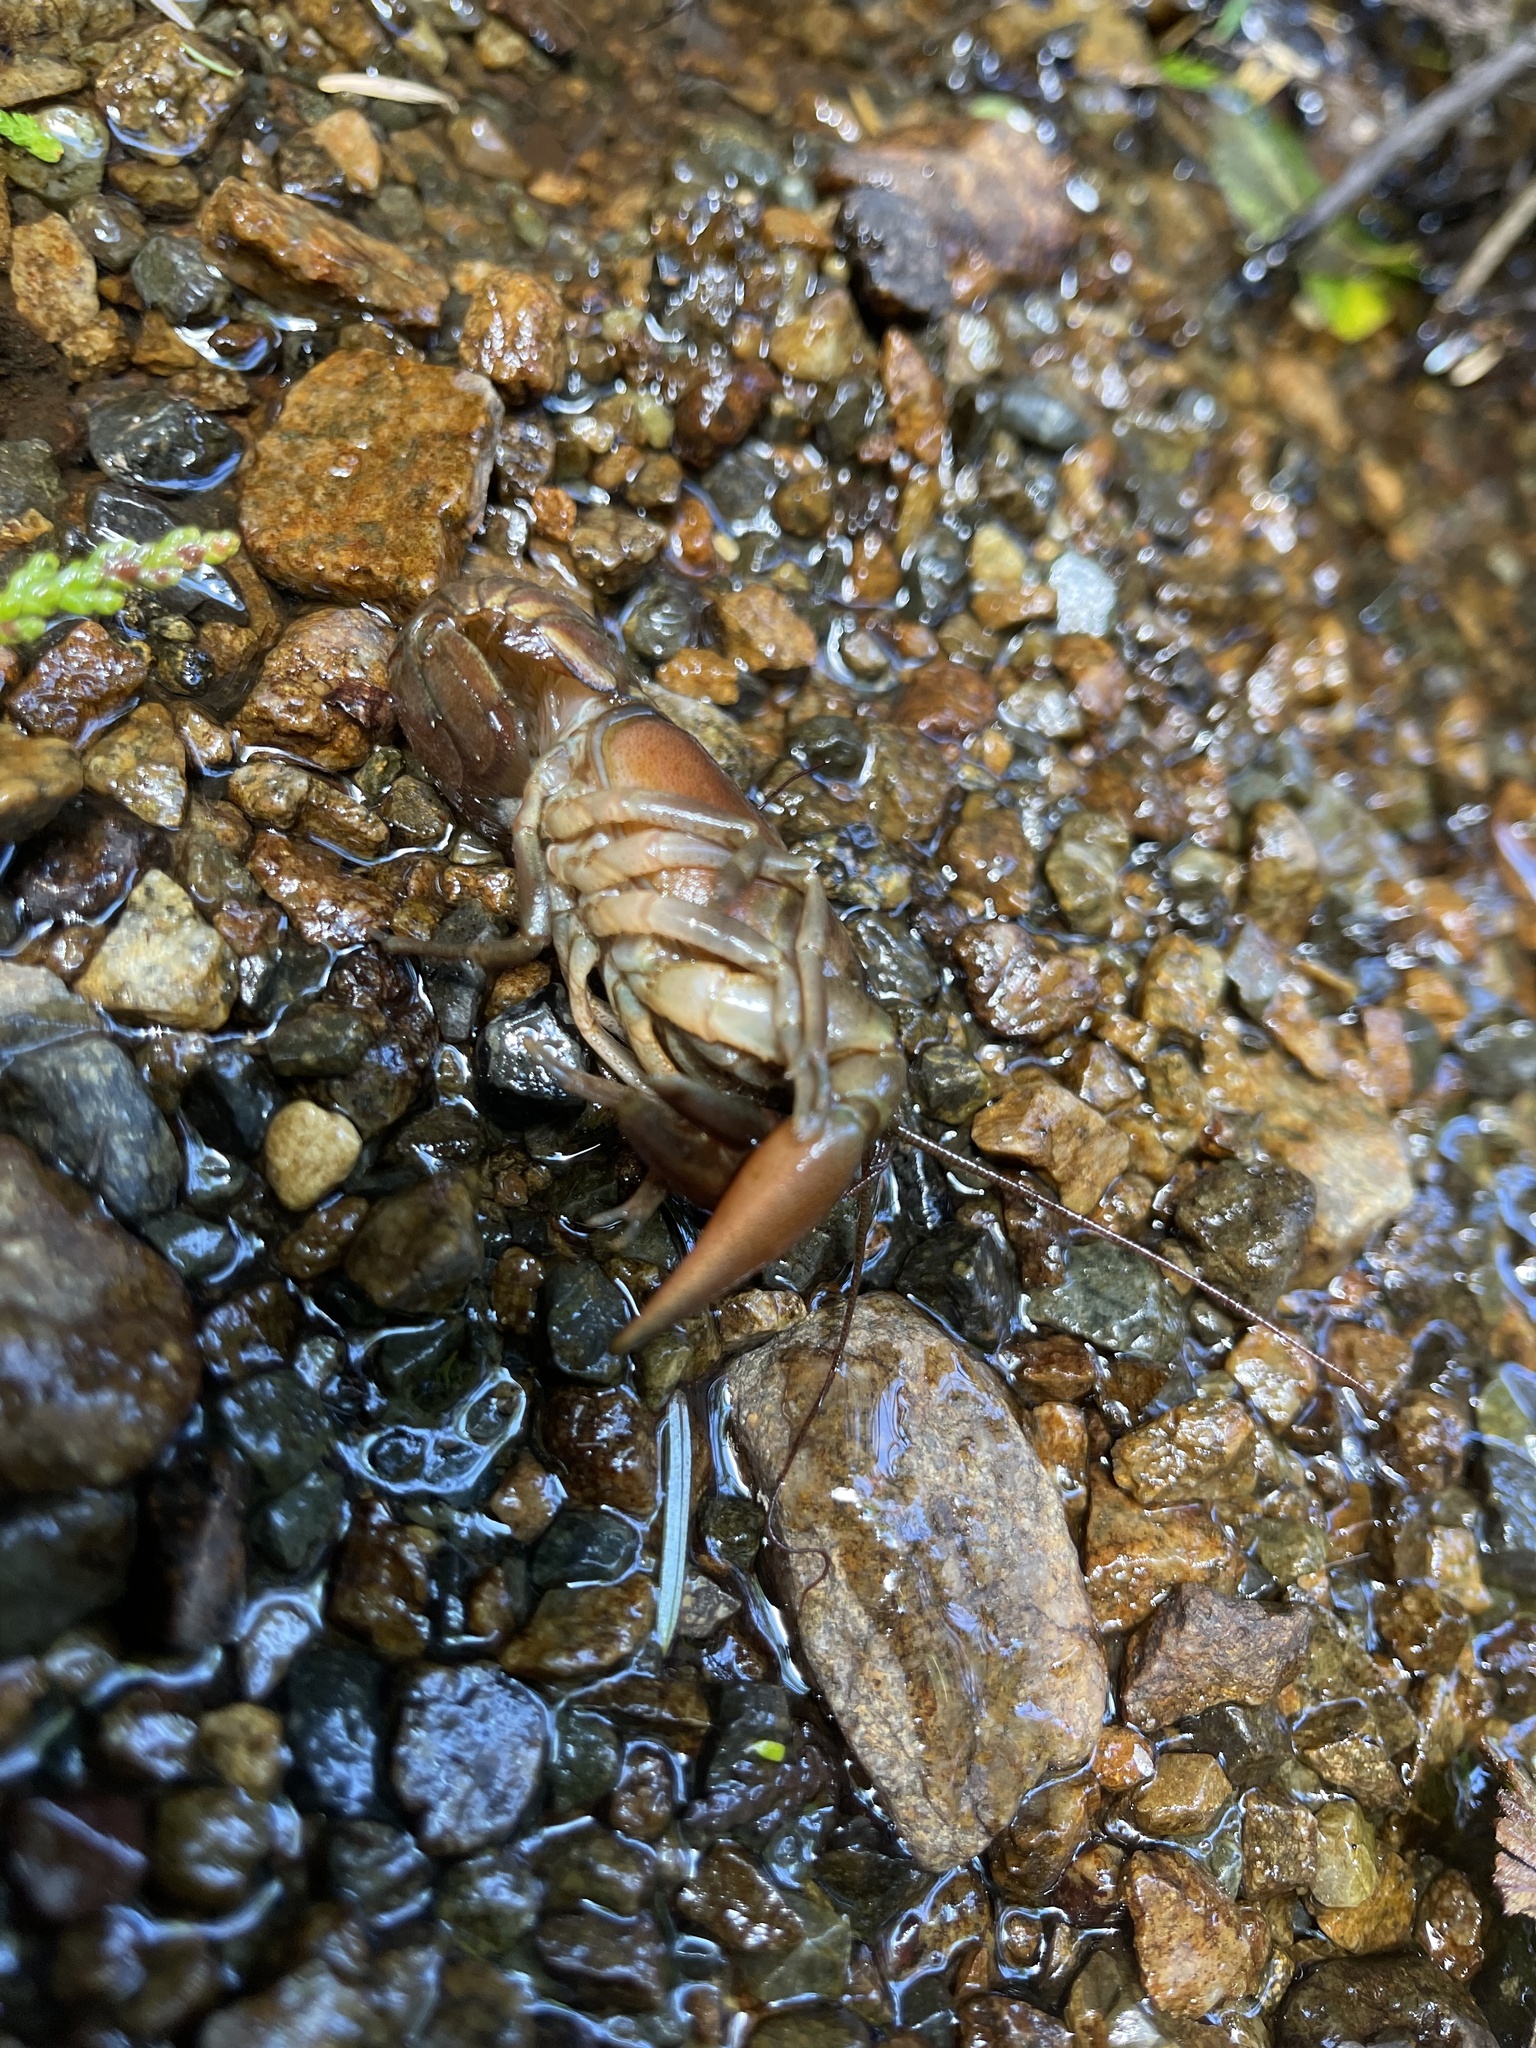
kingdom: Animalia
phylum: Arthropoda
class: Malacostraca
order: Decapoda
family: Astacidae
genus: Pacifastacus
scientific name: Pacifastacus leniusculus
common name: Signal crayfish
